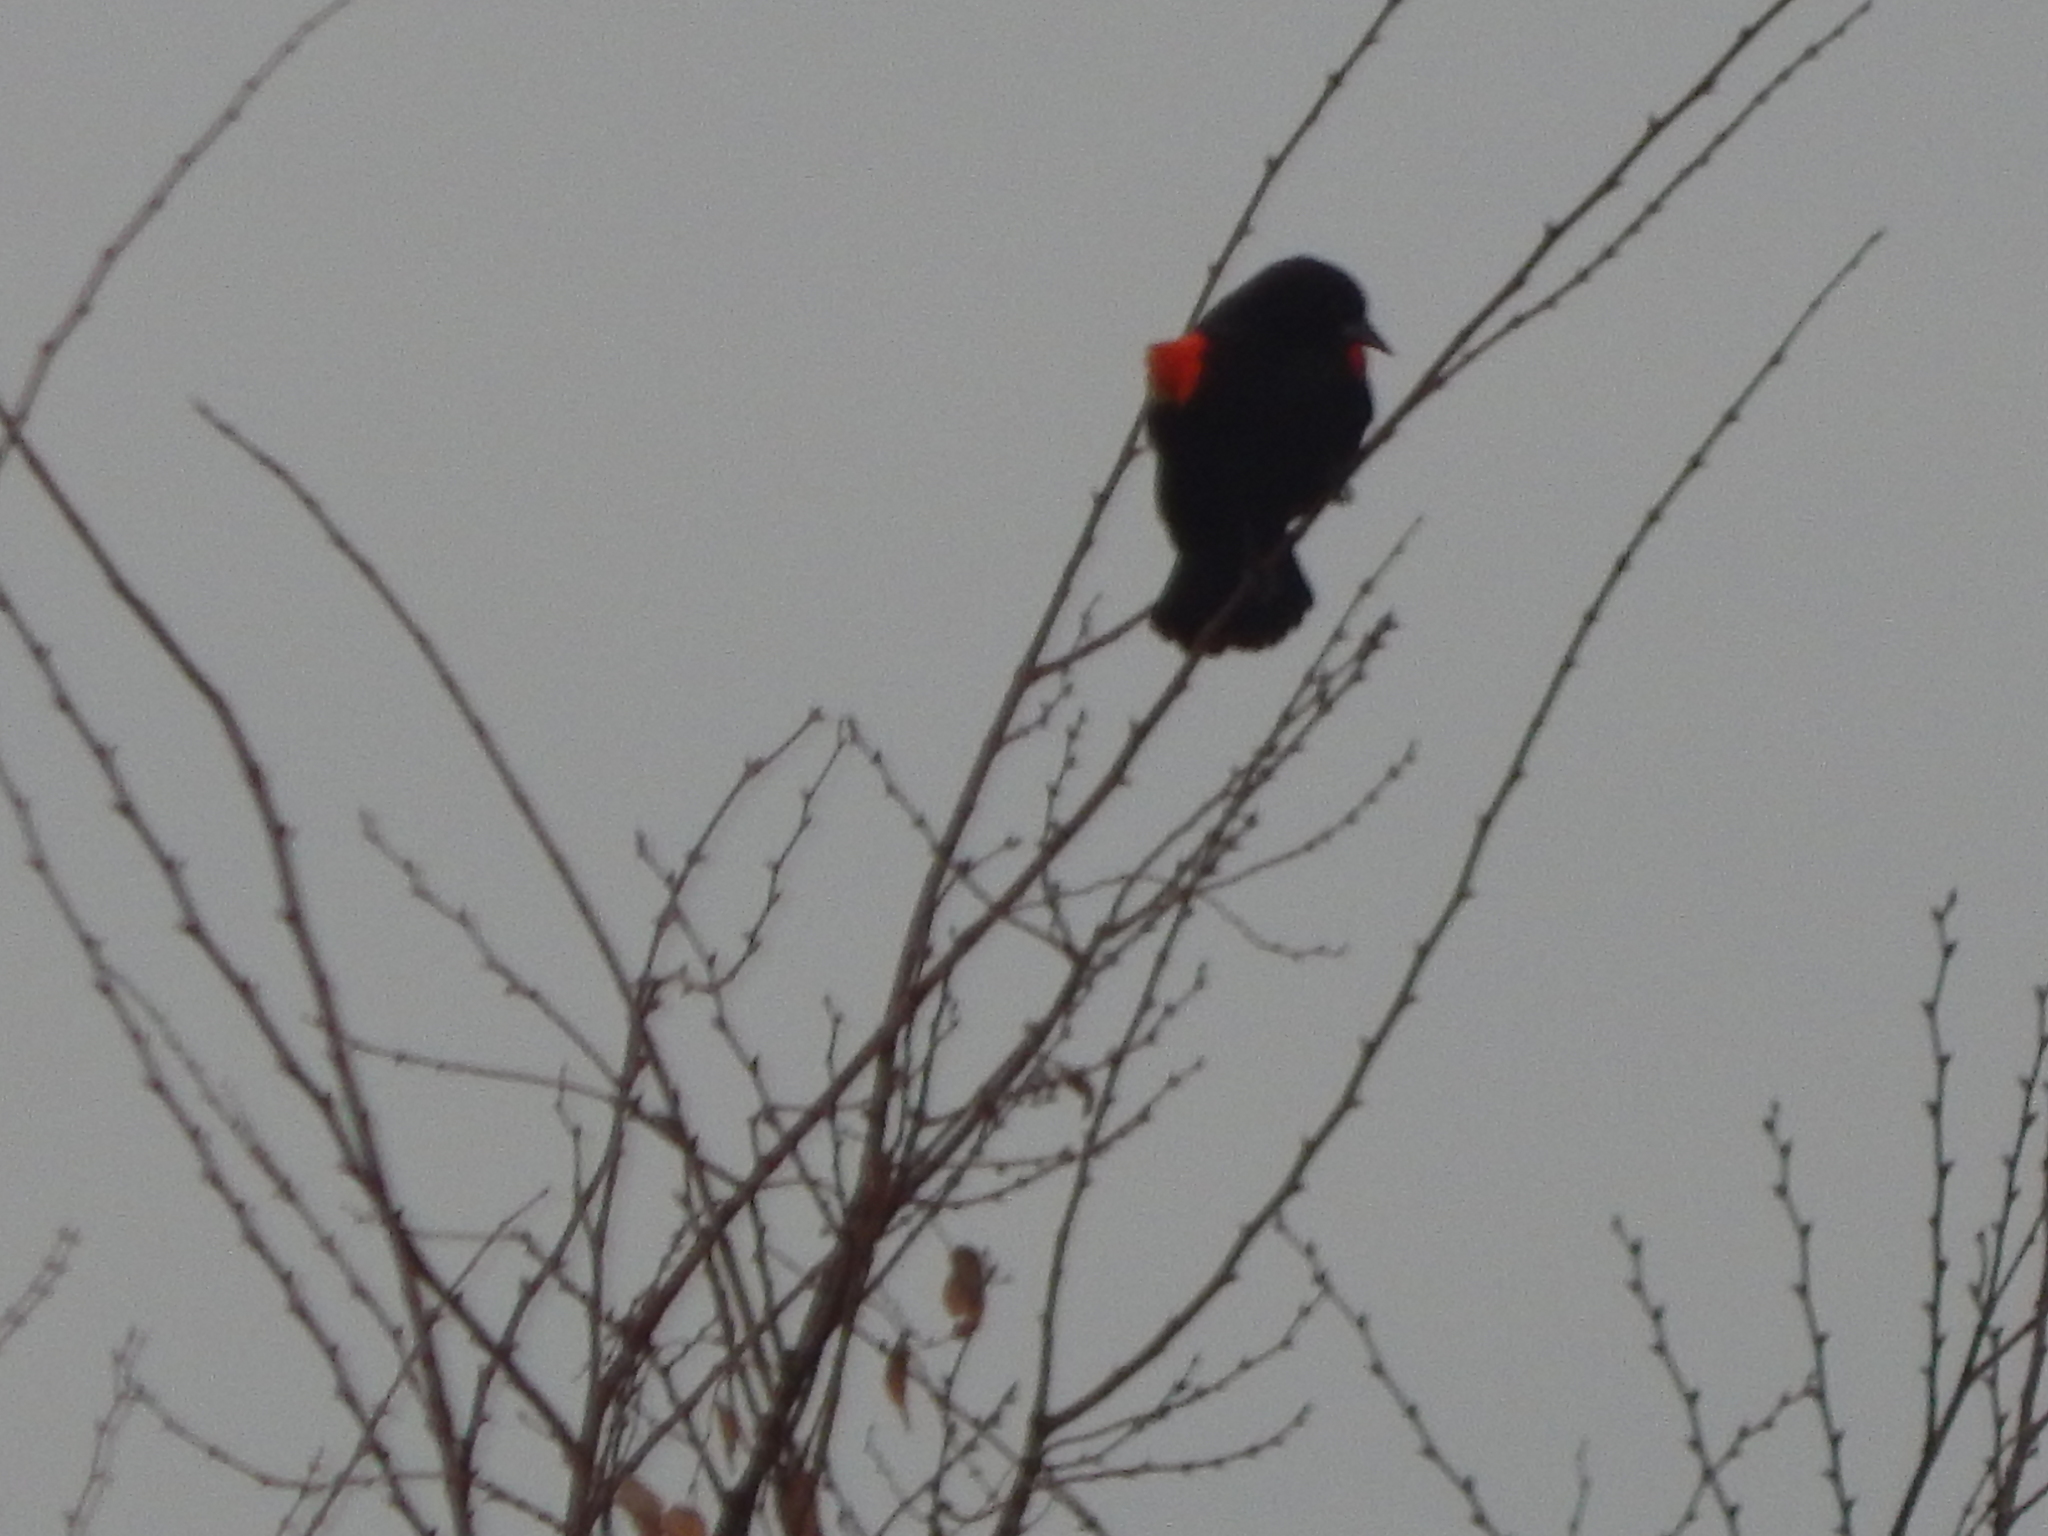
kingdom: Animalia
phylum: Chordata
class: Aves
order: Passeriformes
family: Icteridae
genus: Agelaius
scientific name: Agelaius phoeniceus
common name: Red-winged blackbird
